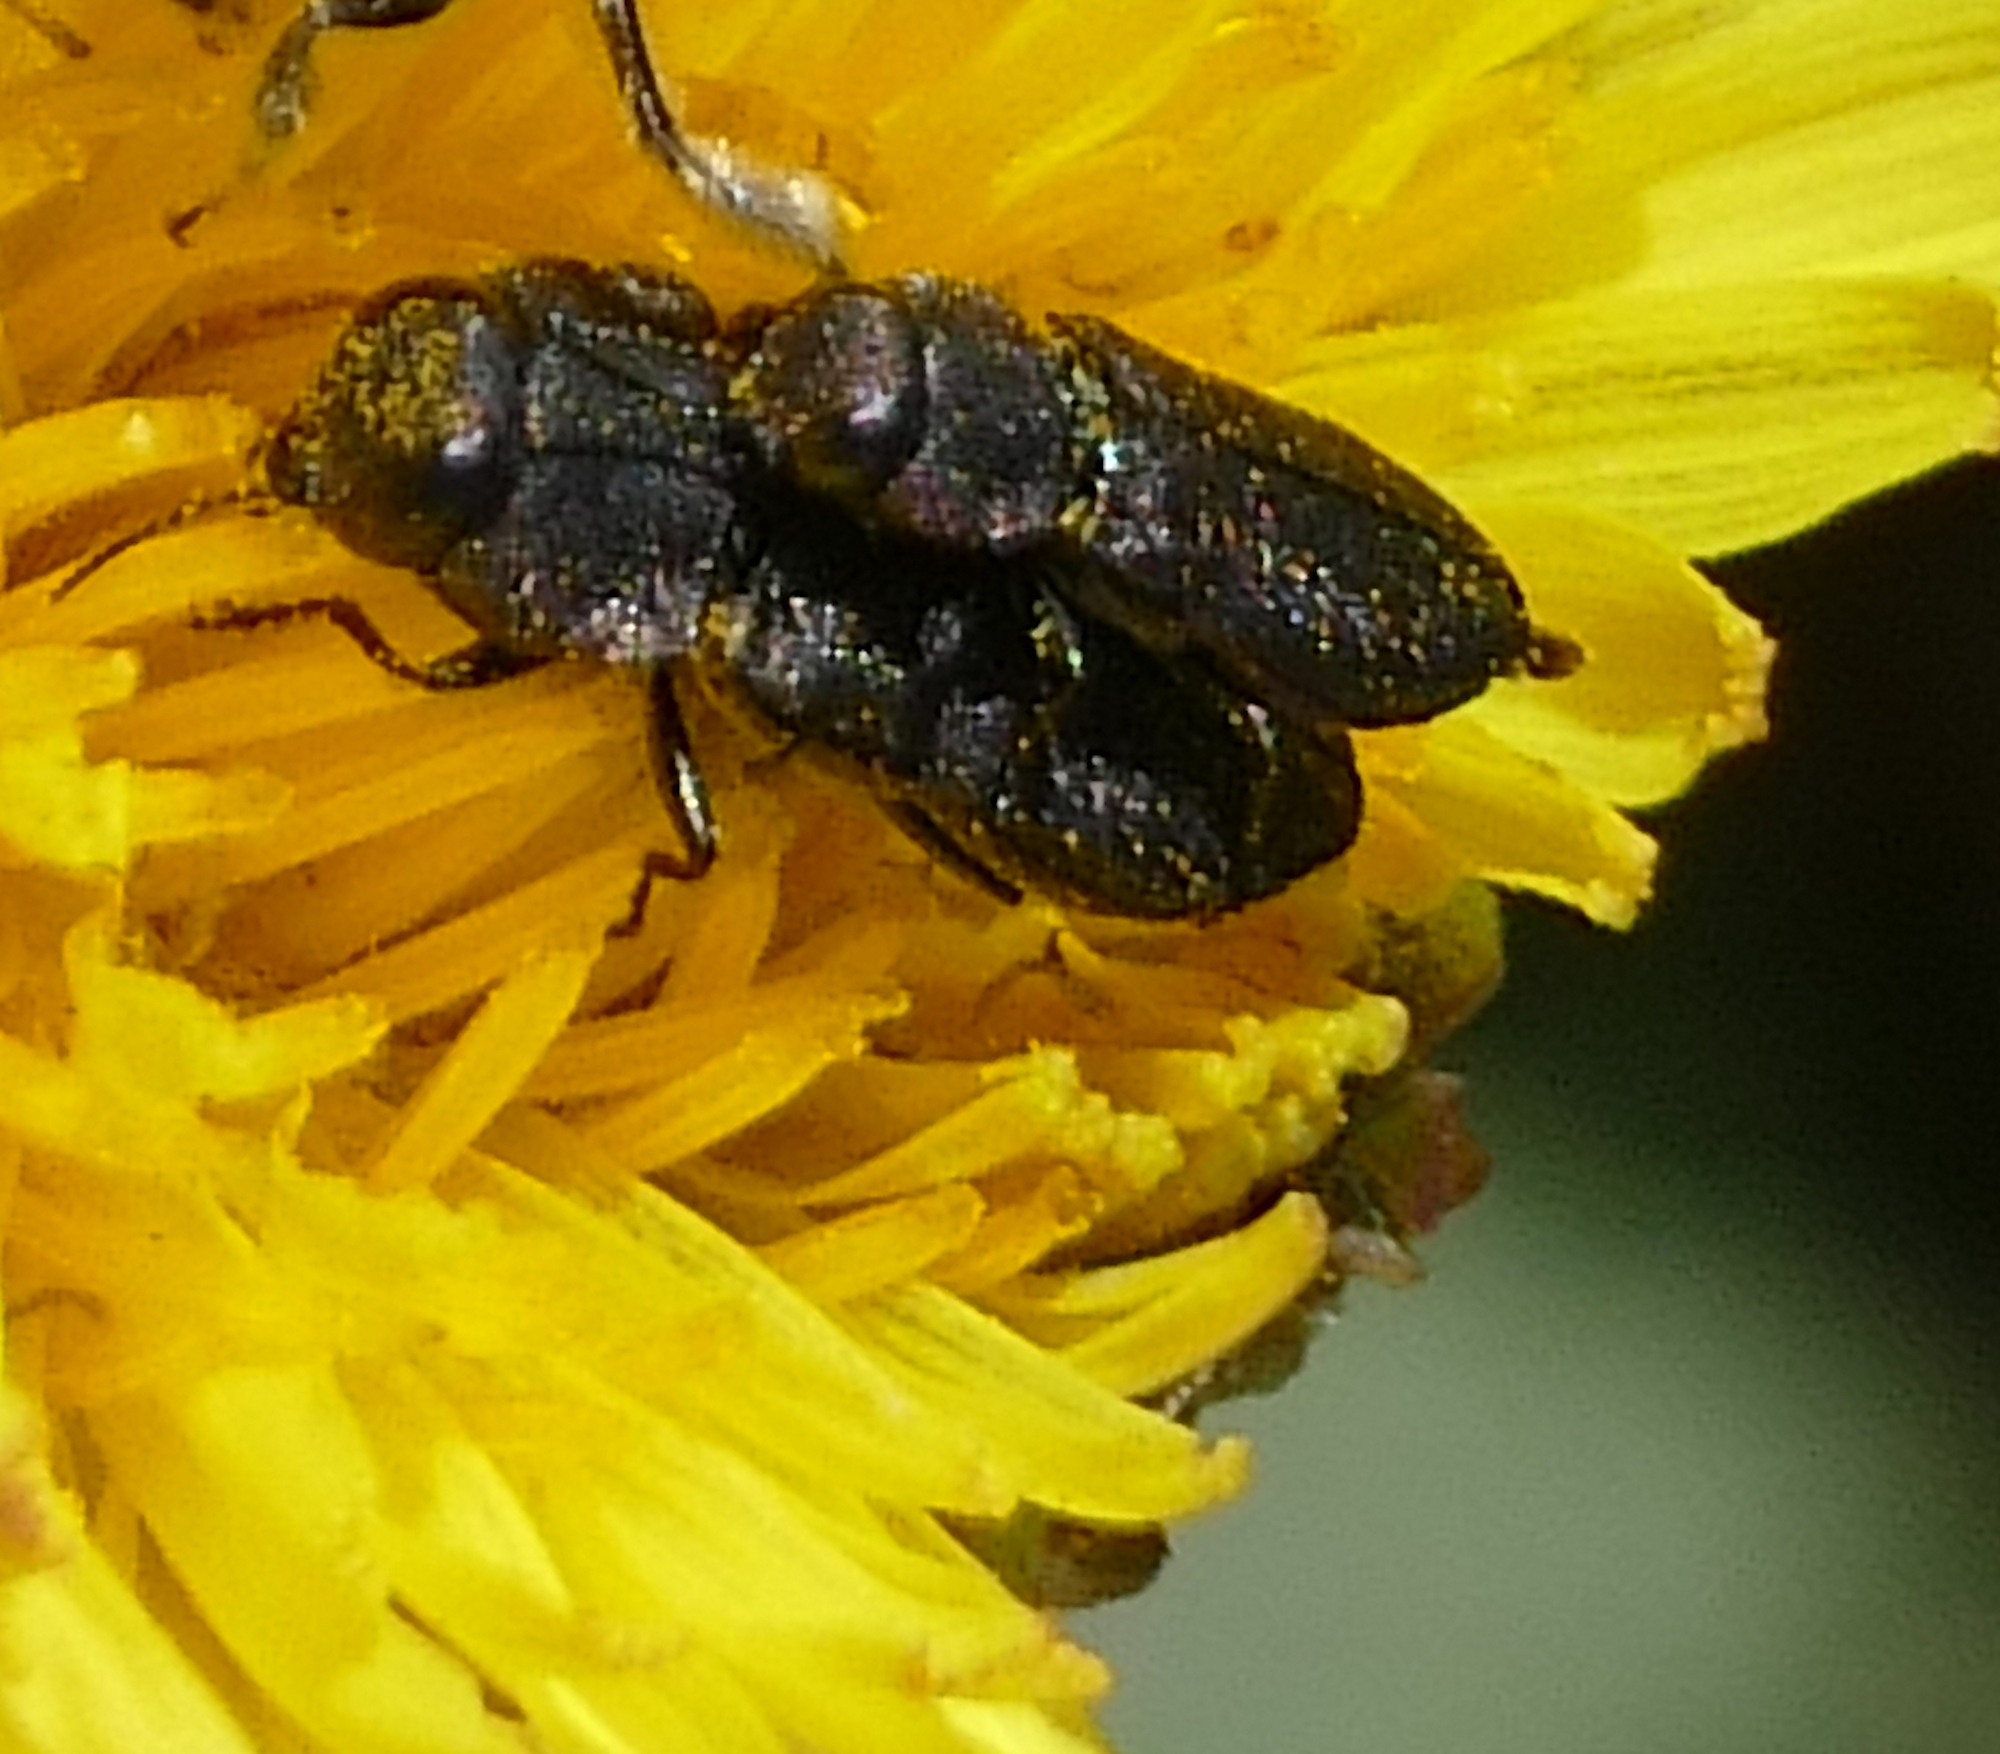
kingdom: Animalia
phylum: Arthropoda
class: Insecta
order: Coleoptera
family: Buprestidae
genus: Anthaxia
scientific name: Anthaxia
